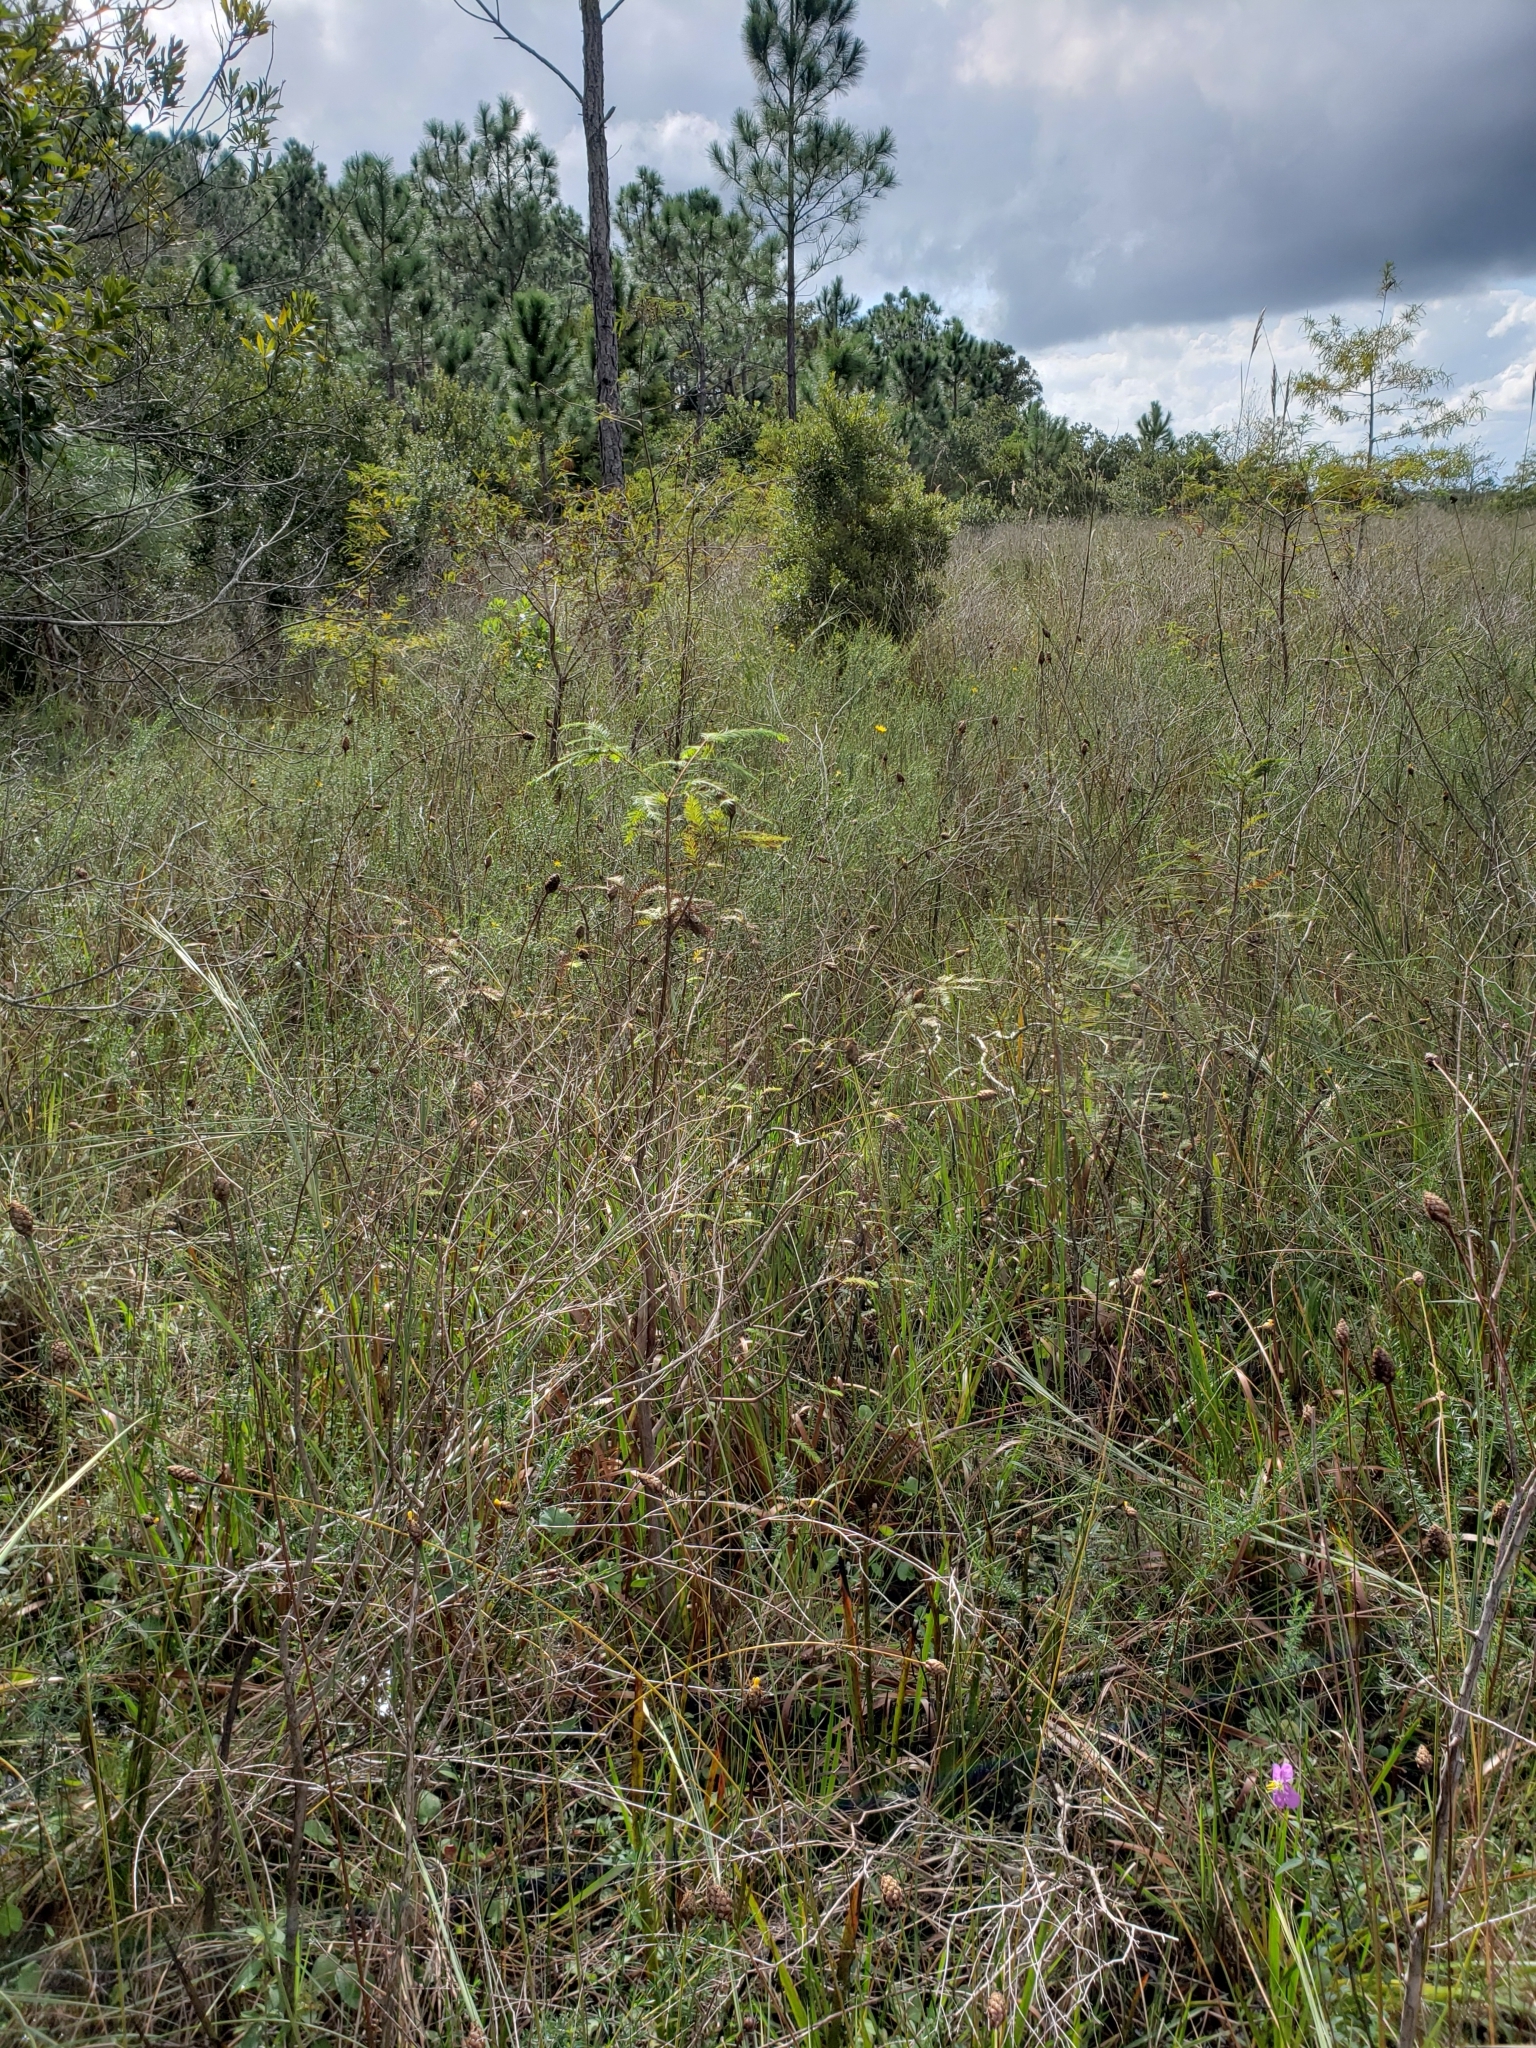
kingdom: Plantae
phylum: Tracheophyta
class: Pinopsida
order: Pinales
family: Cupressaceae
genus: Taxodium
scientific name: Taxodium distichum
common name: Bald cypress
